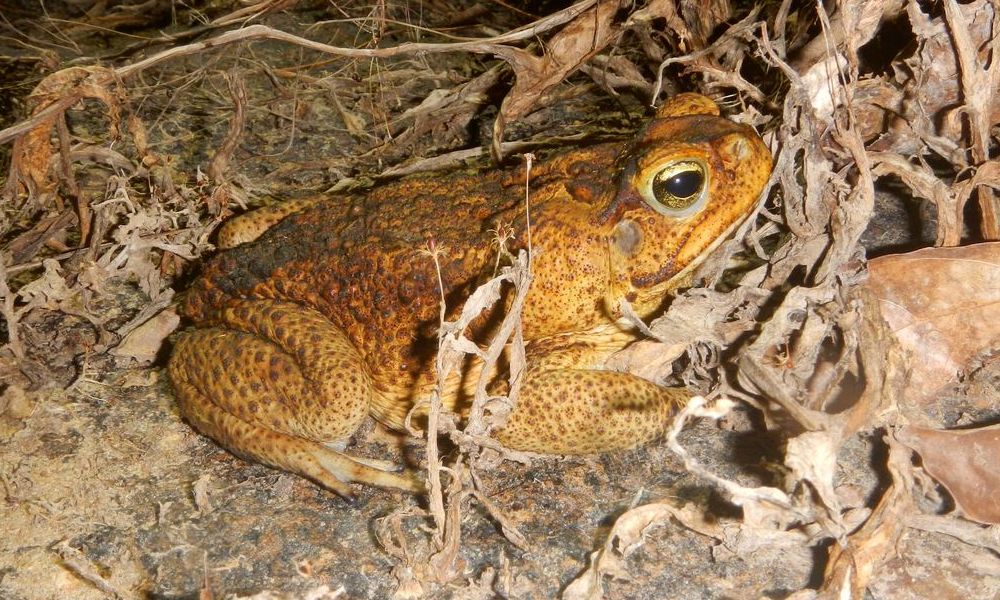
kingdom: Animalia
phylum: Chordata
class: Amphibia
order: Anura
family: Bufonidae
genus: Rhinella
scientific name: Rhinella marina
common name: Cane toad
